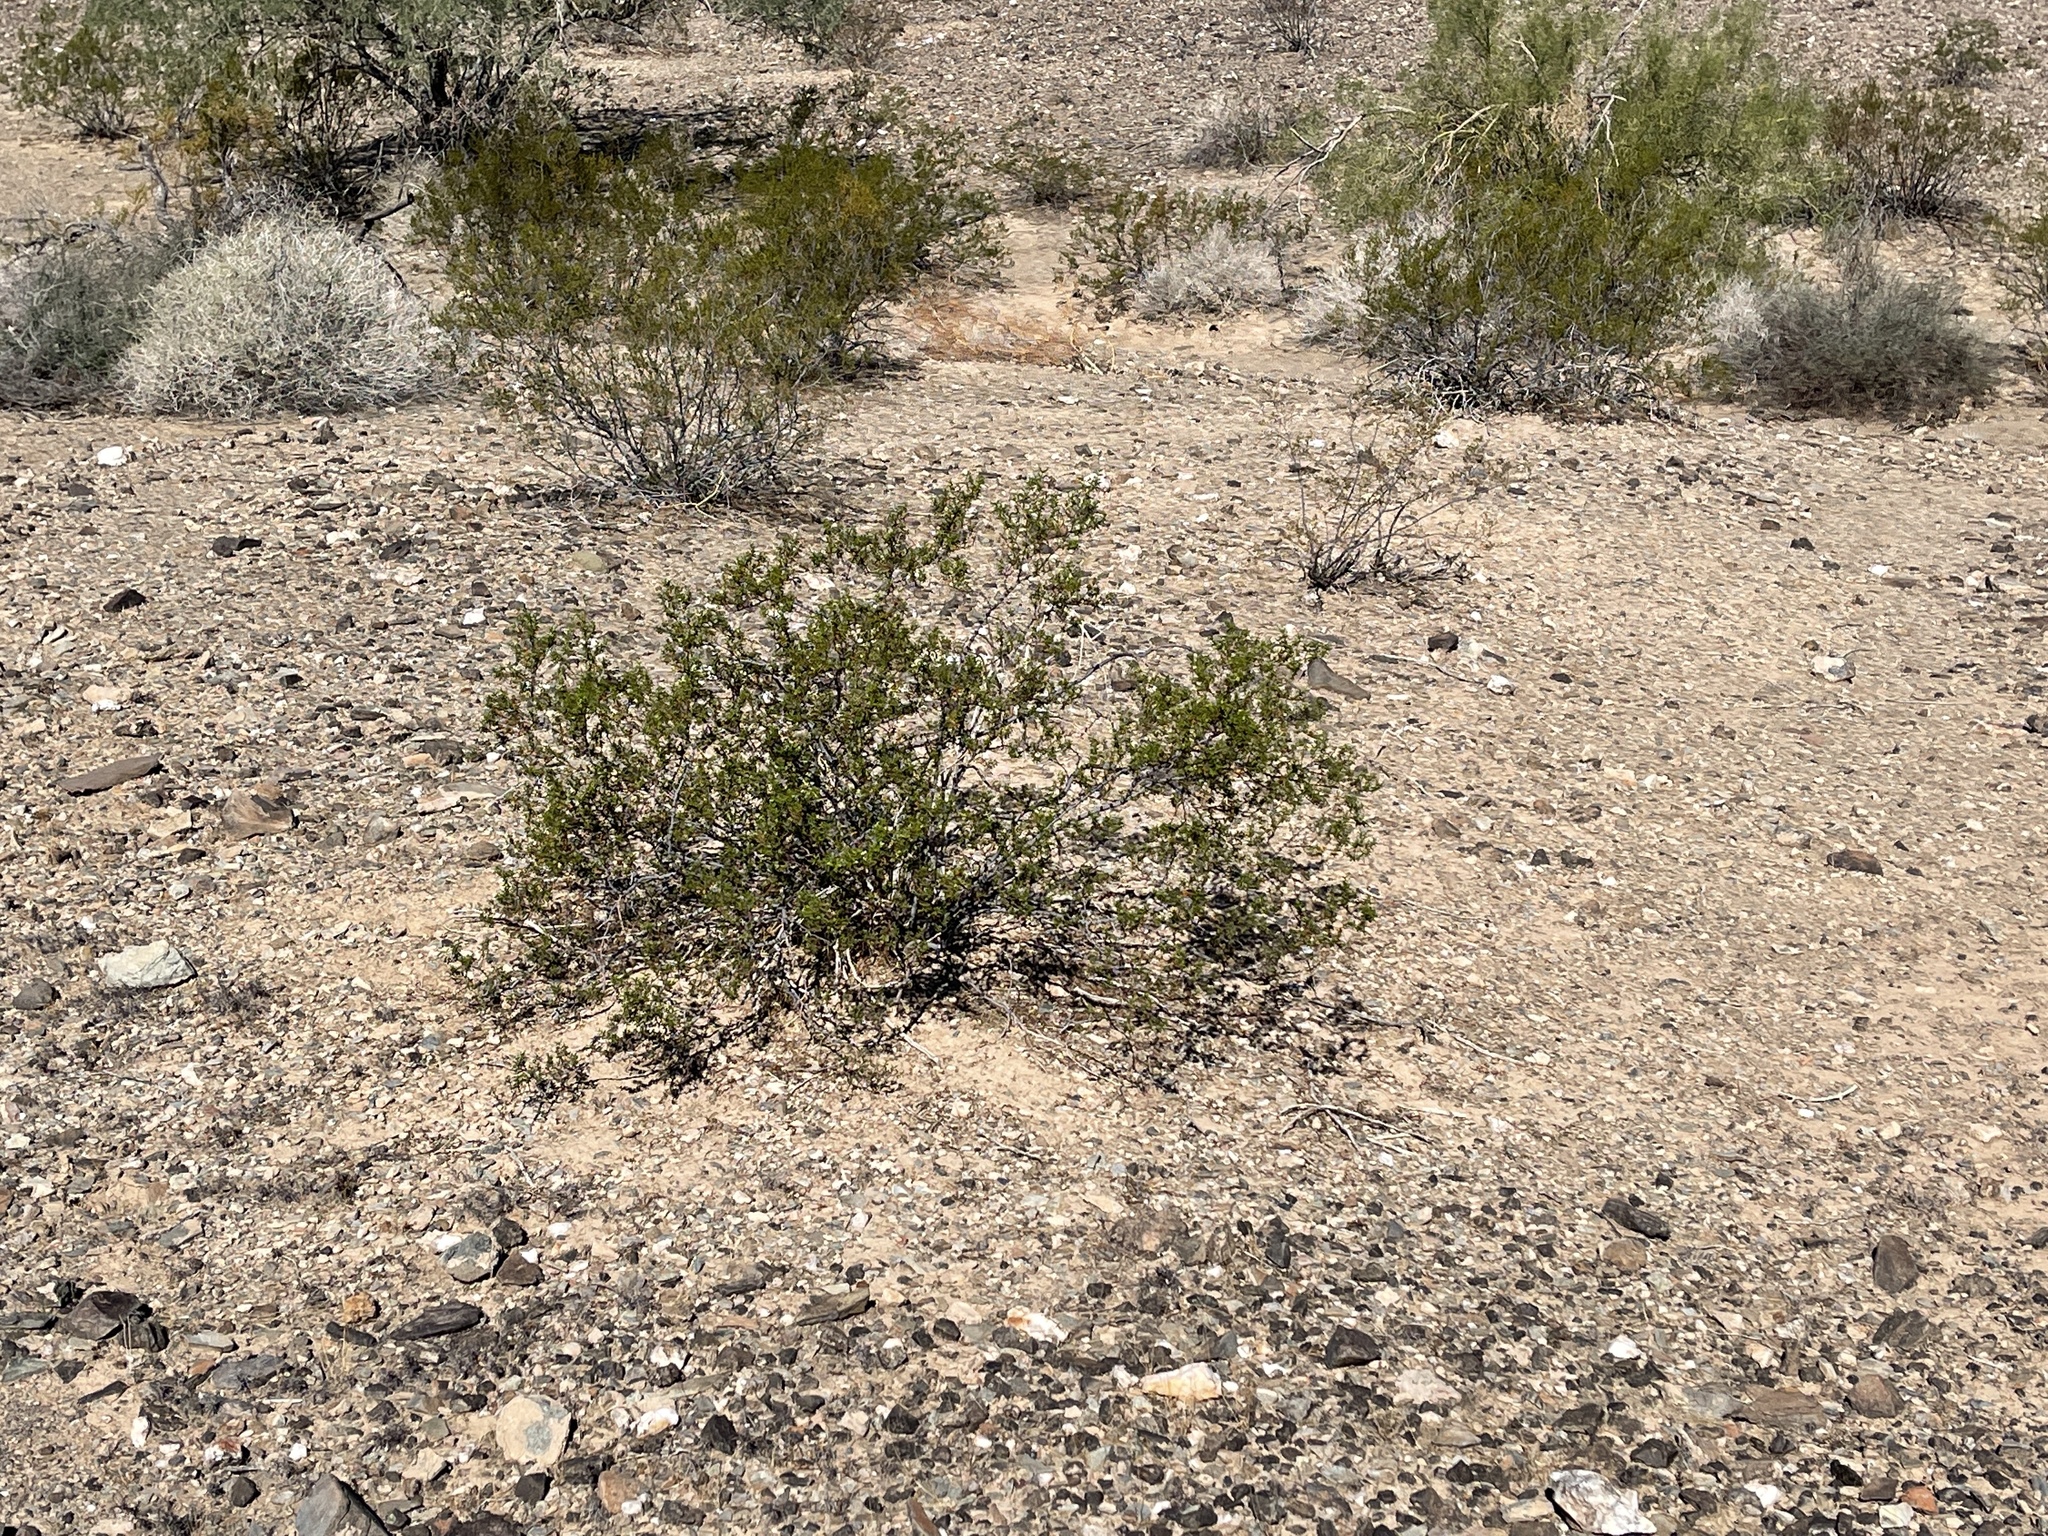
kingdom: Plantae
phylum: Tracheophyta
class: Magnoliopsida
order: Zygophyllales
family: Zygophyllaceae
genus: Larrea
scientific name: Larrea tridentata
